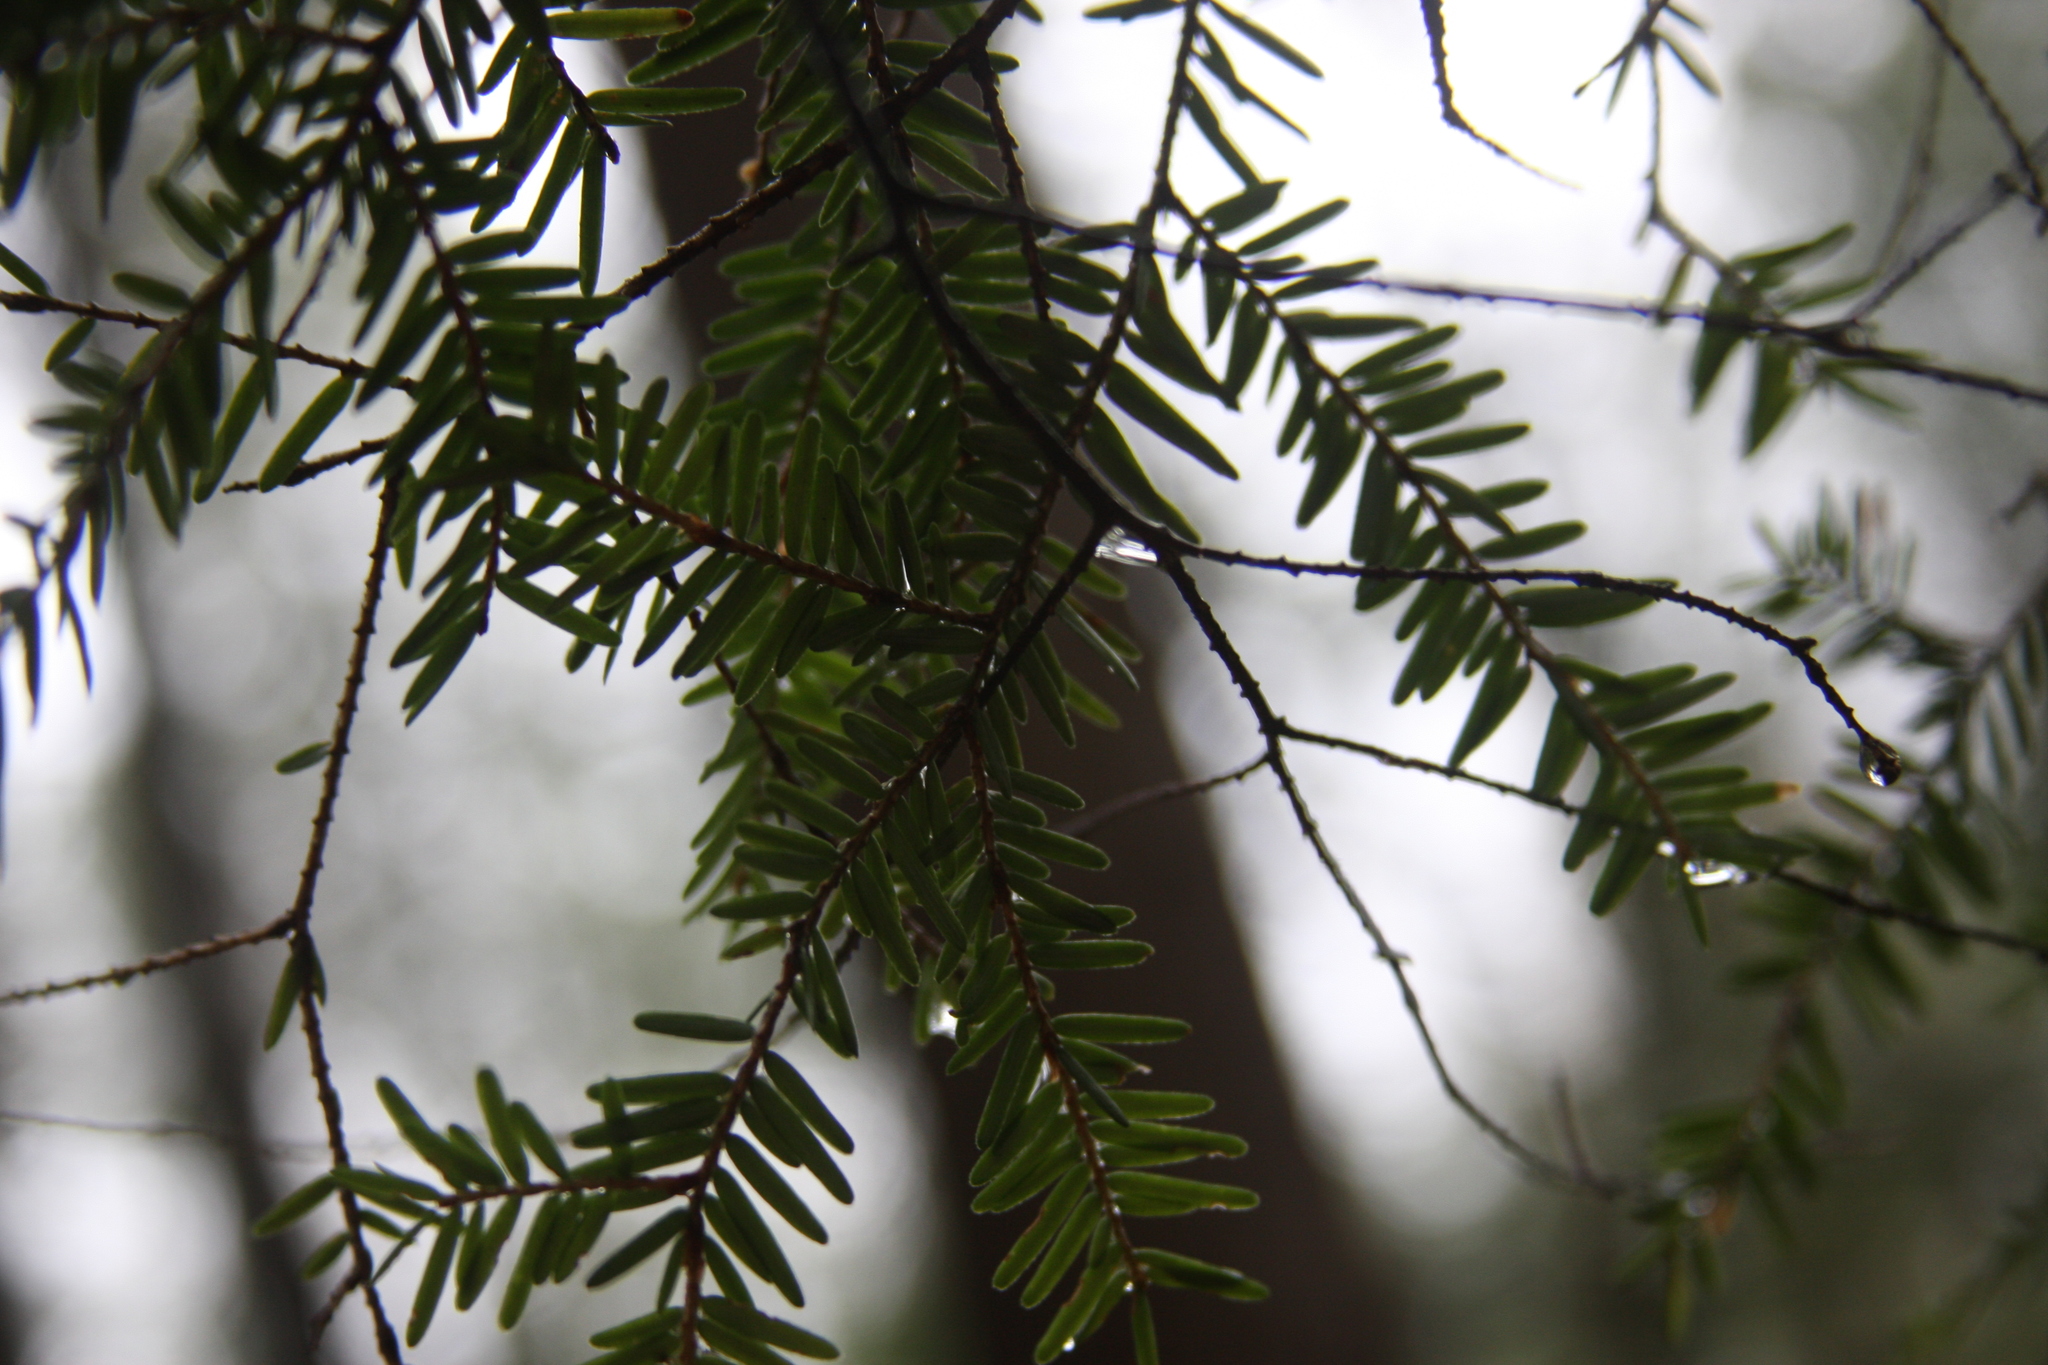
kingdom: Plantae
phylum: Tracheophyta
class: Pinopsida
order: Pinales
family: Pinaceae
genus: Tsuga
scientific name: Tsuga canadensis
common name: Eastern hemlock
